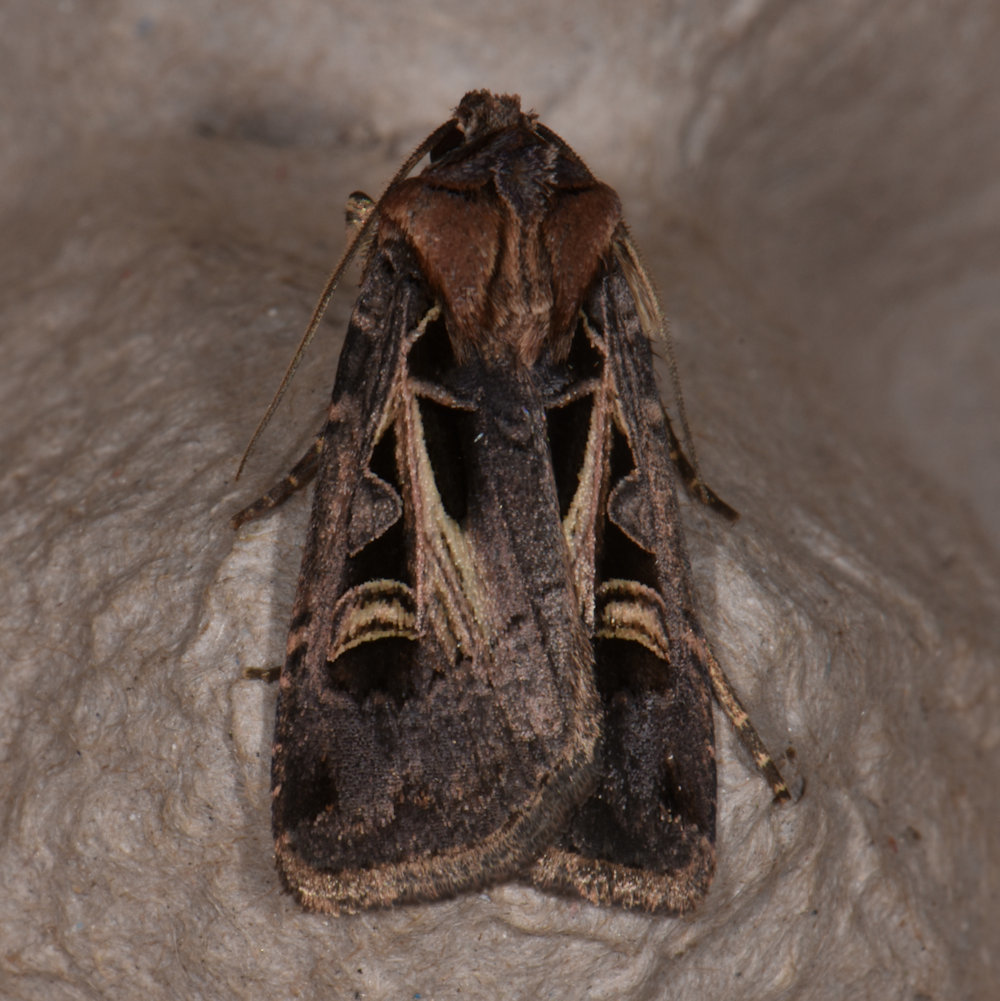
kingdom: Animalia
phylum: Arthropoda
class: Insecta
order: Lepidoptera
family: Noctuidae
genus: Feltia
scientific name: Feltia herilis
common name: Master's dart
